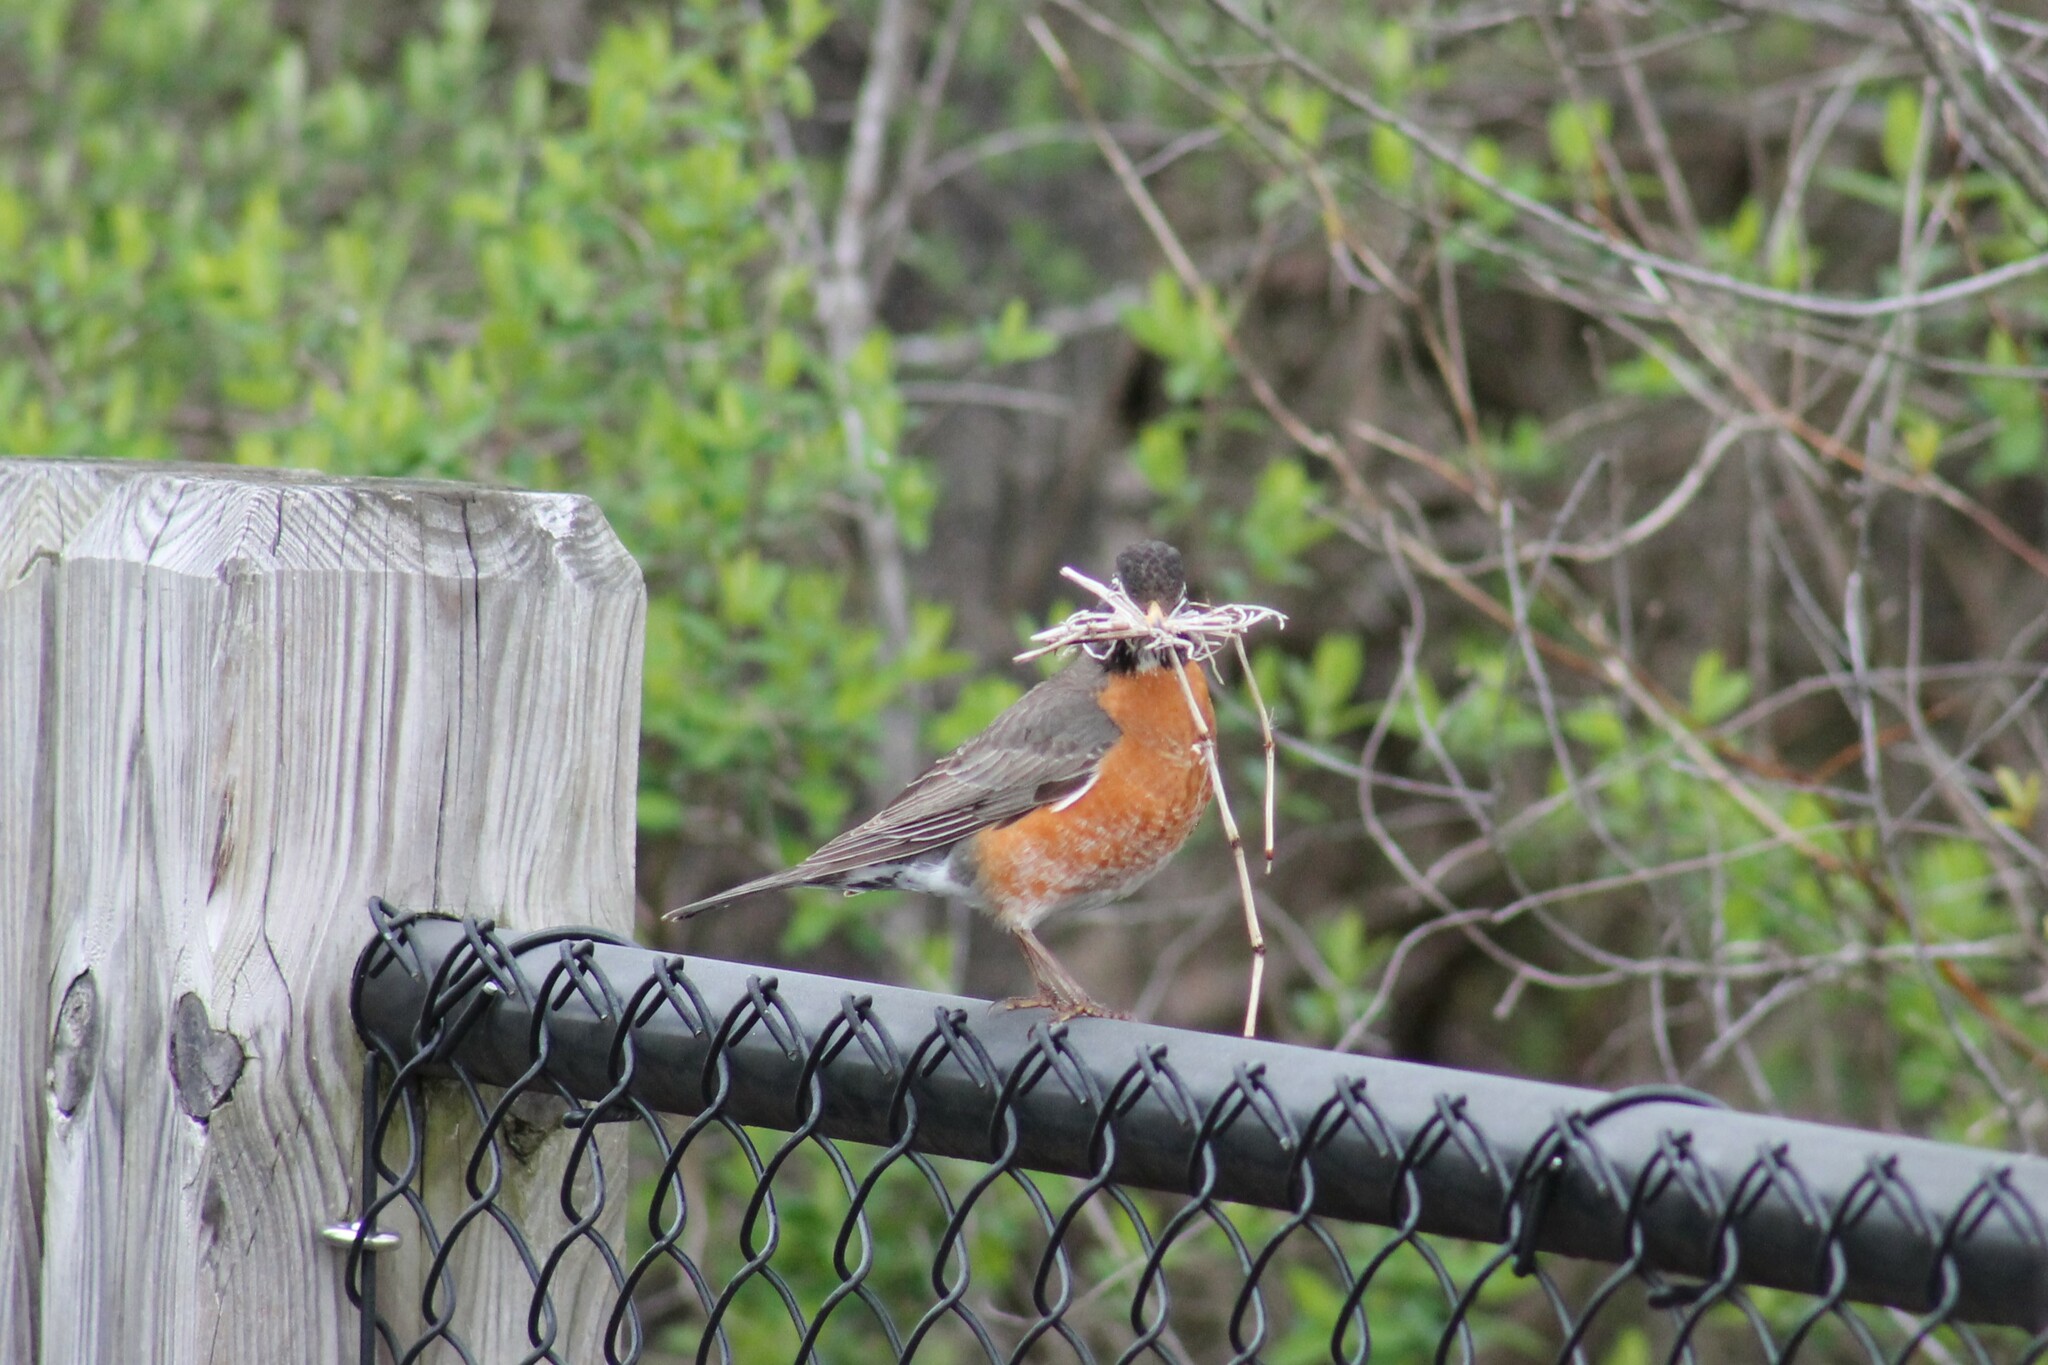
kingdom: Animalia
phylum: Chordata
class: Aves
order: Passeriformes
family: Turdidae
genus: Turdus
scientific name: Turdus migratorius
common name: American robin
